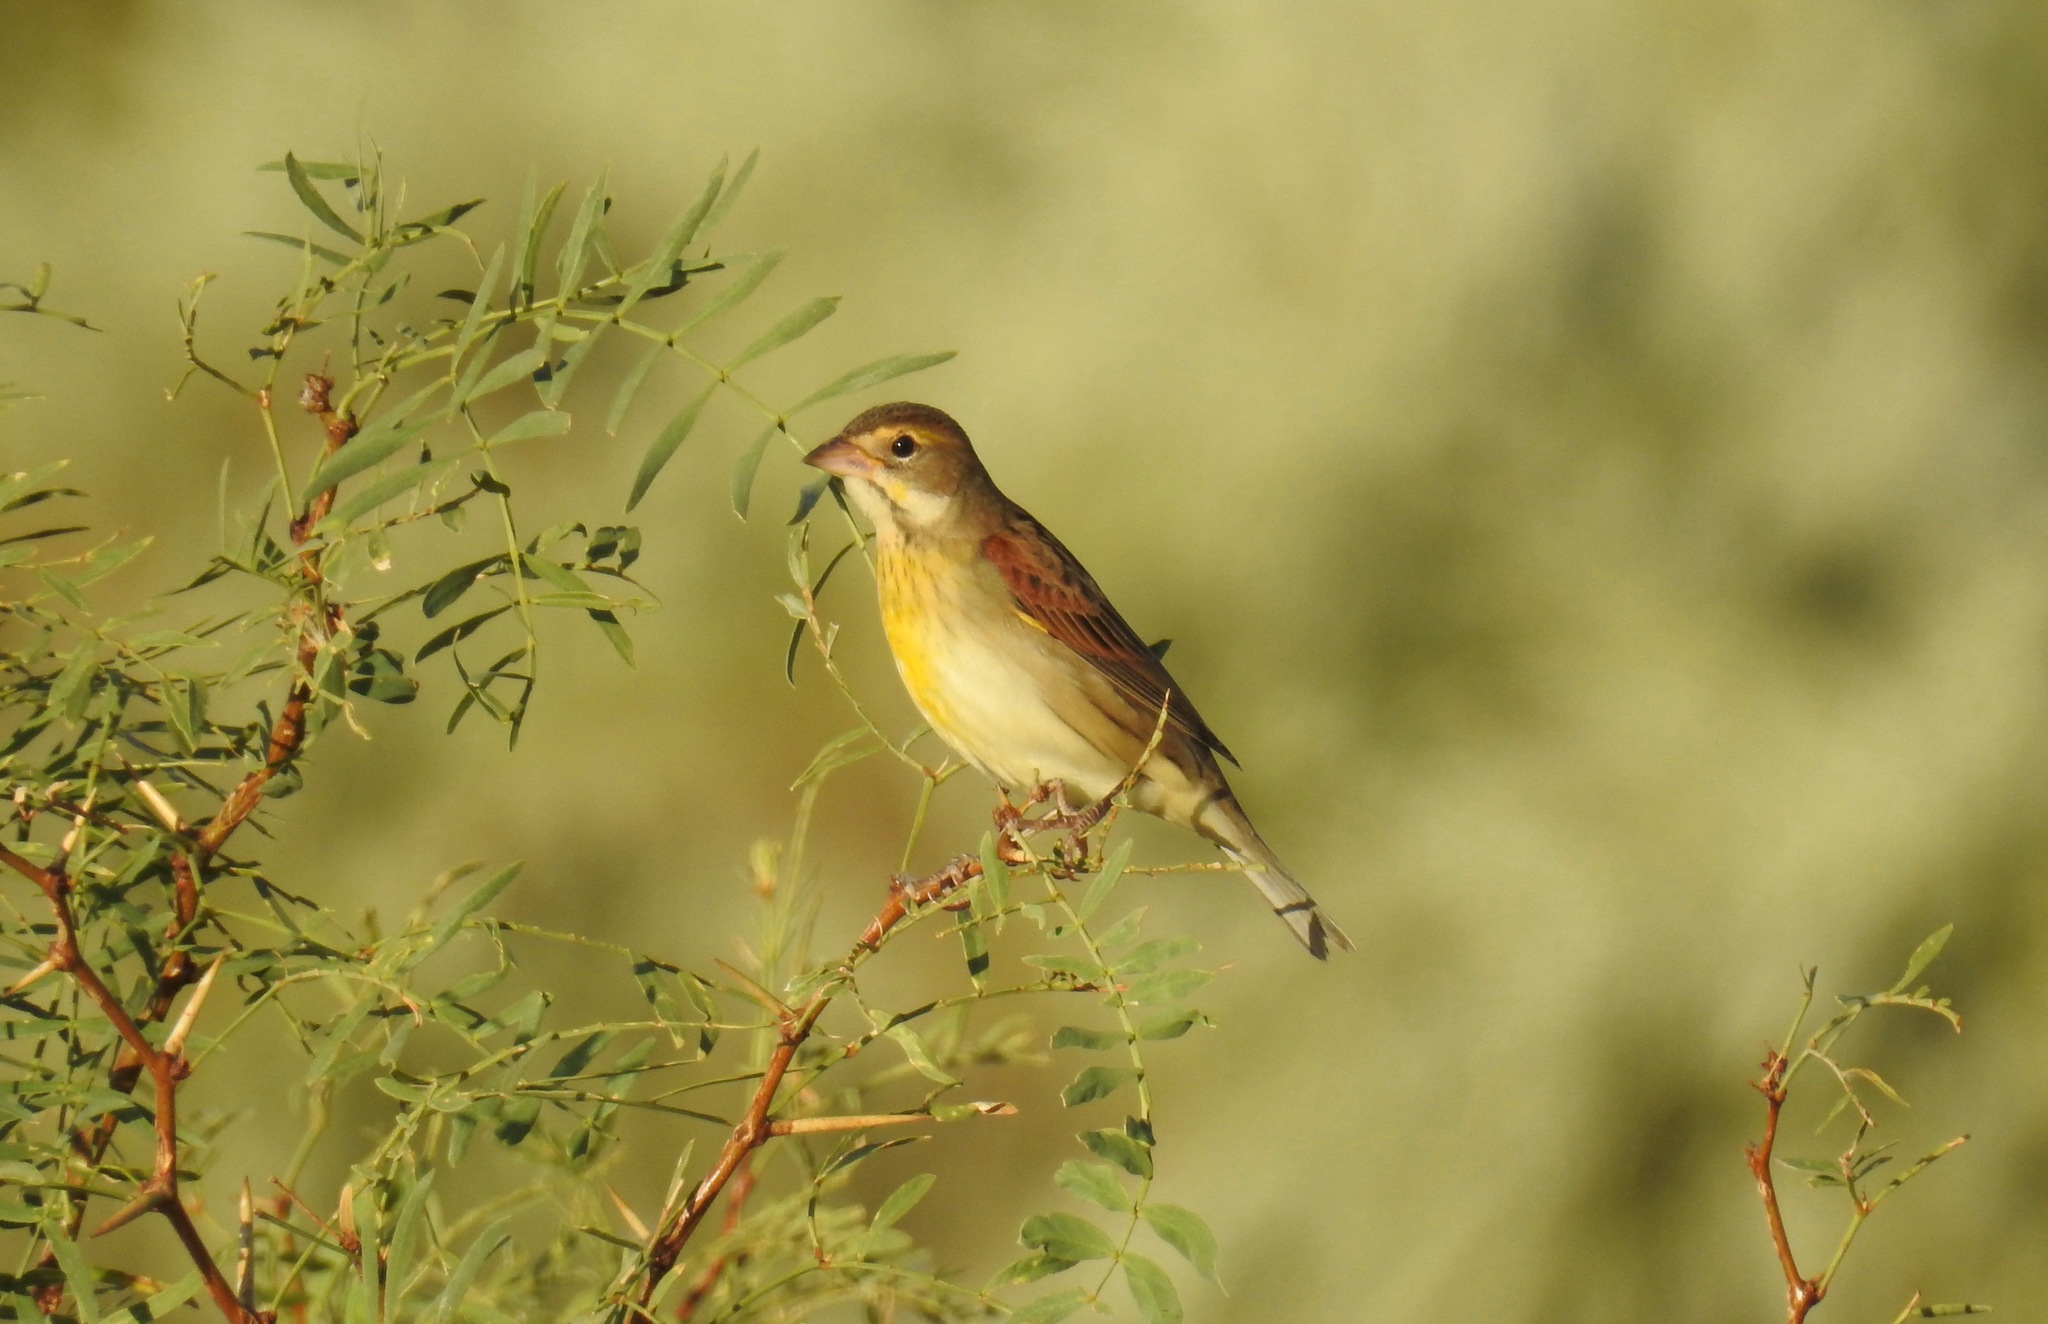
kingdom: Animalia
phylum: Chordata
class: Aves
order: Passeriformes
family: Cardinalidae
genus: Spiza
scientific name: Spiza americana
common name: Dickcissel
